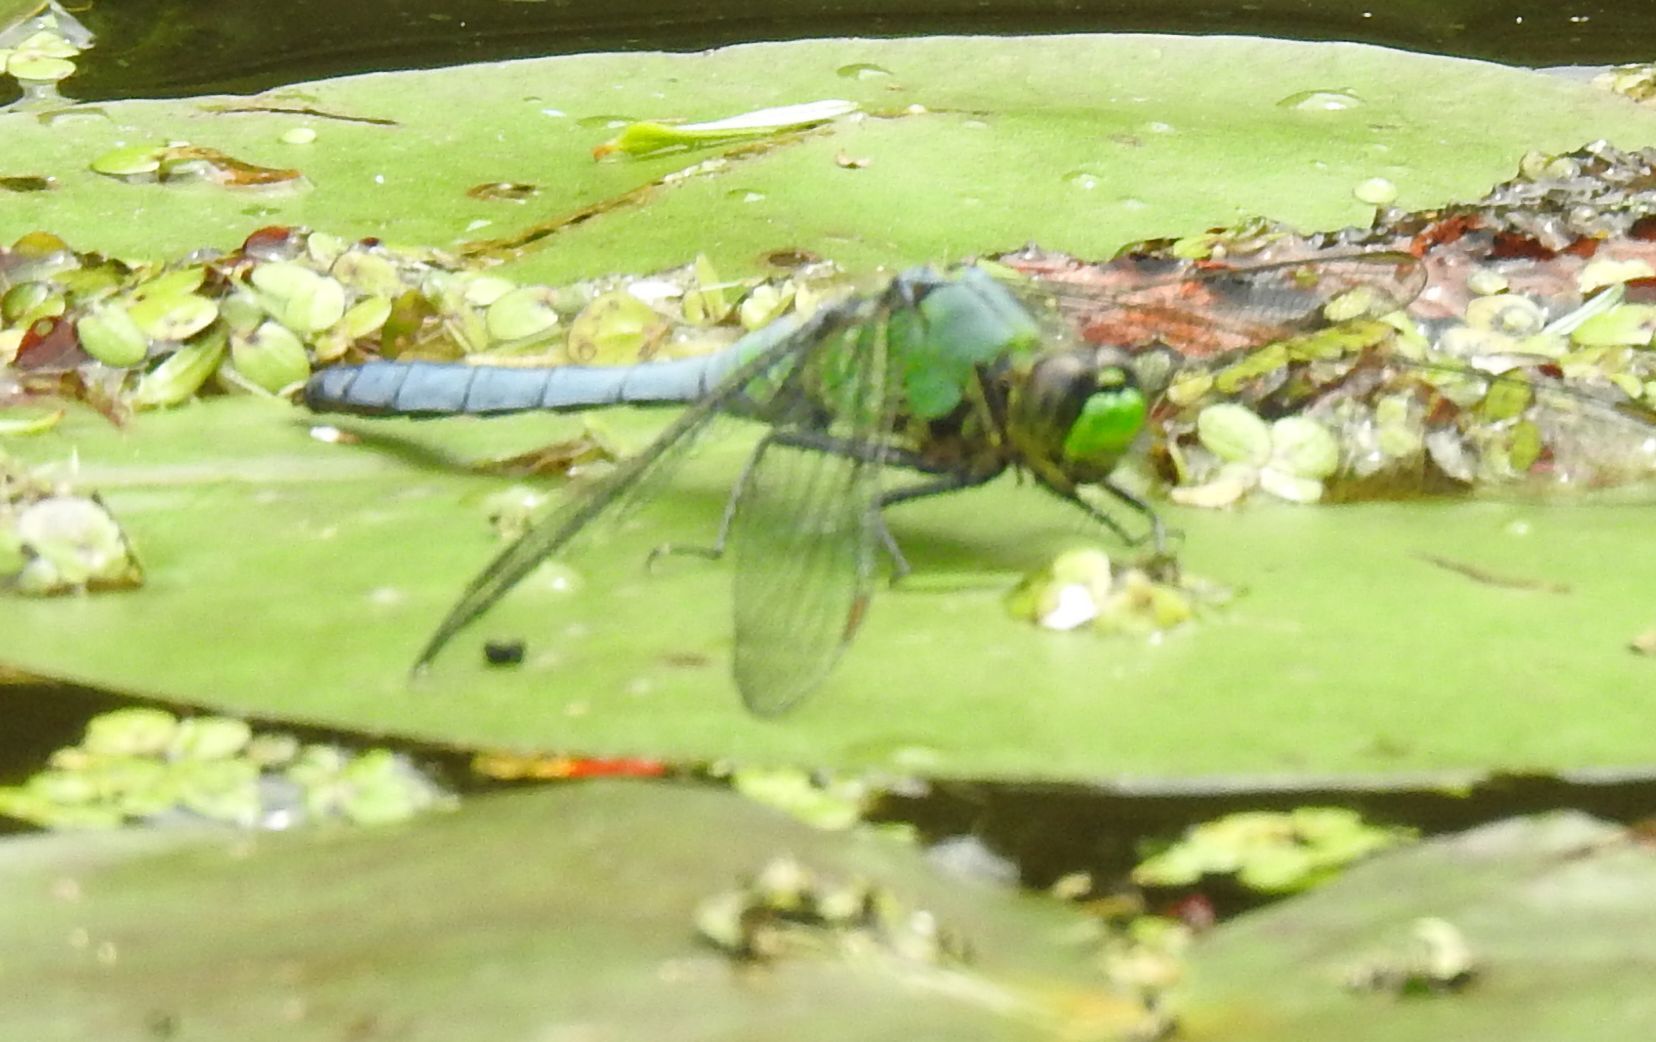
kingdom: Animalia
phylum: Arthropoda
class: Insecta
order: Odonata
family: Libellulidae
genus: Erythemis
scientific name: Erythemis simplicicollis
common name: Eastern pondhawk
